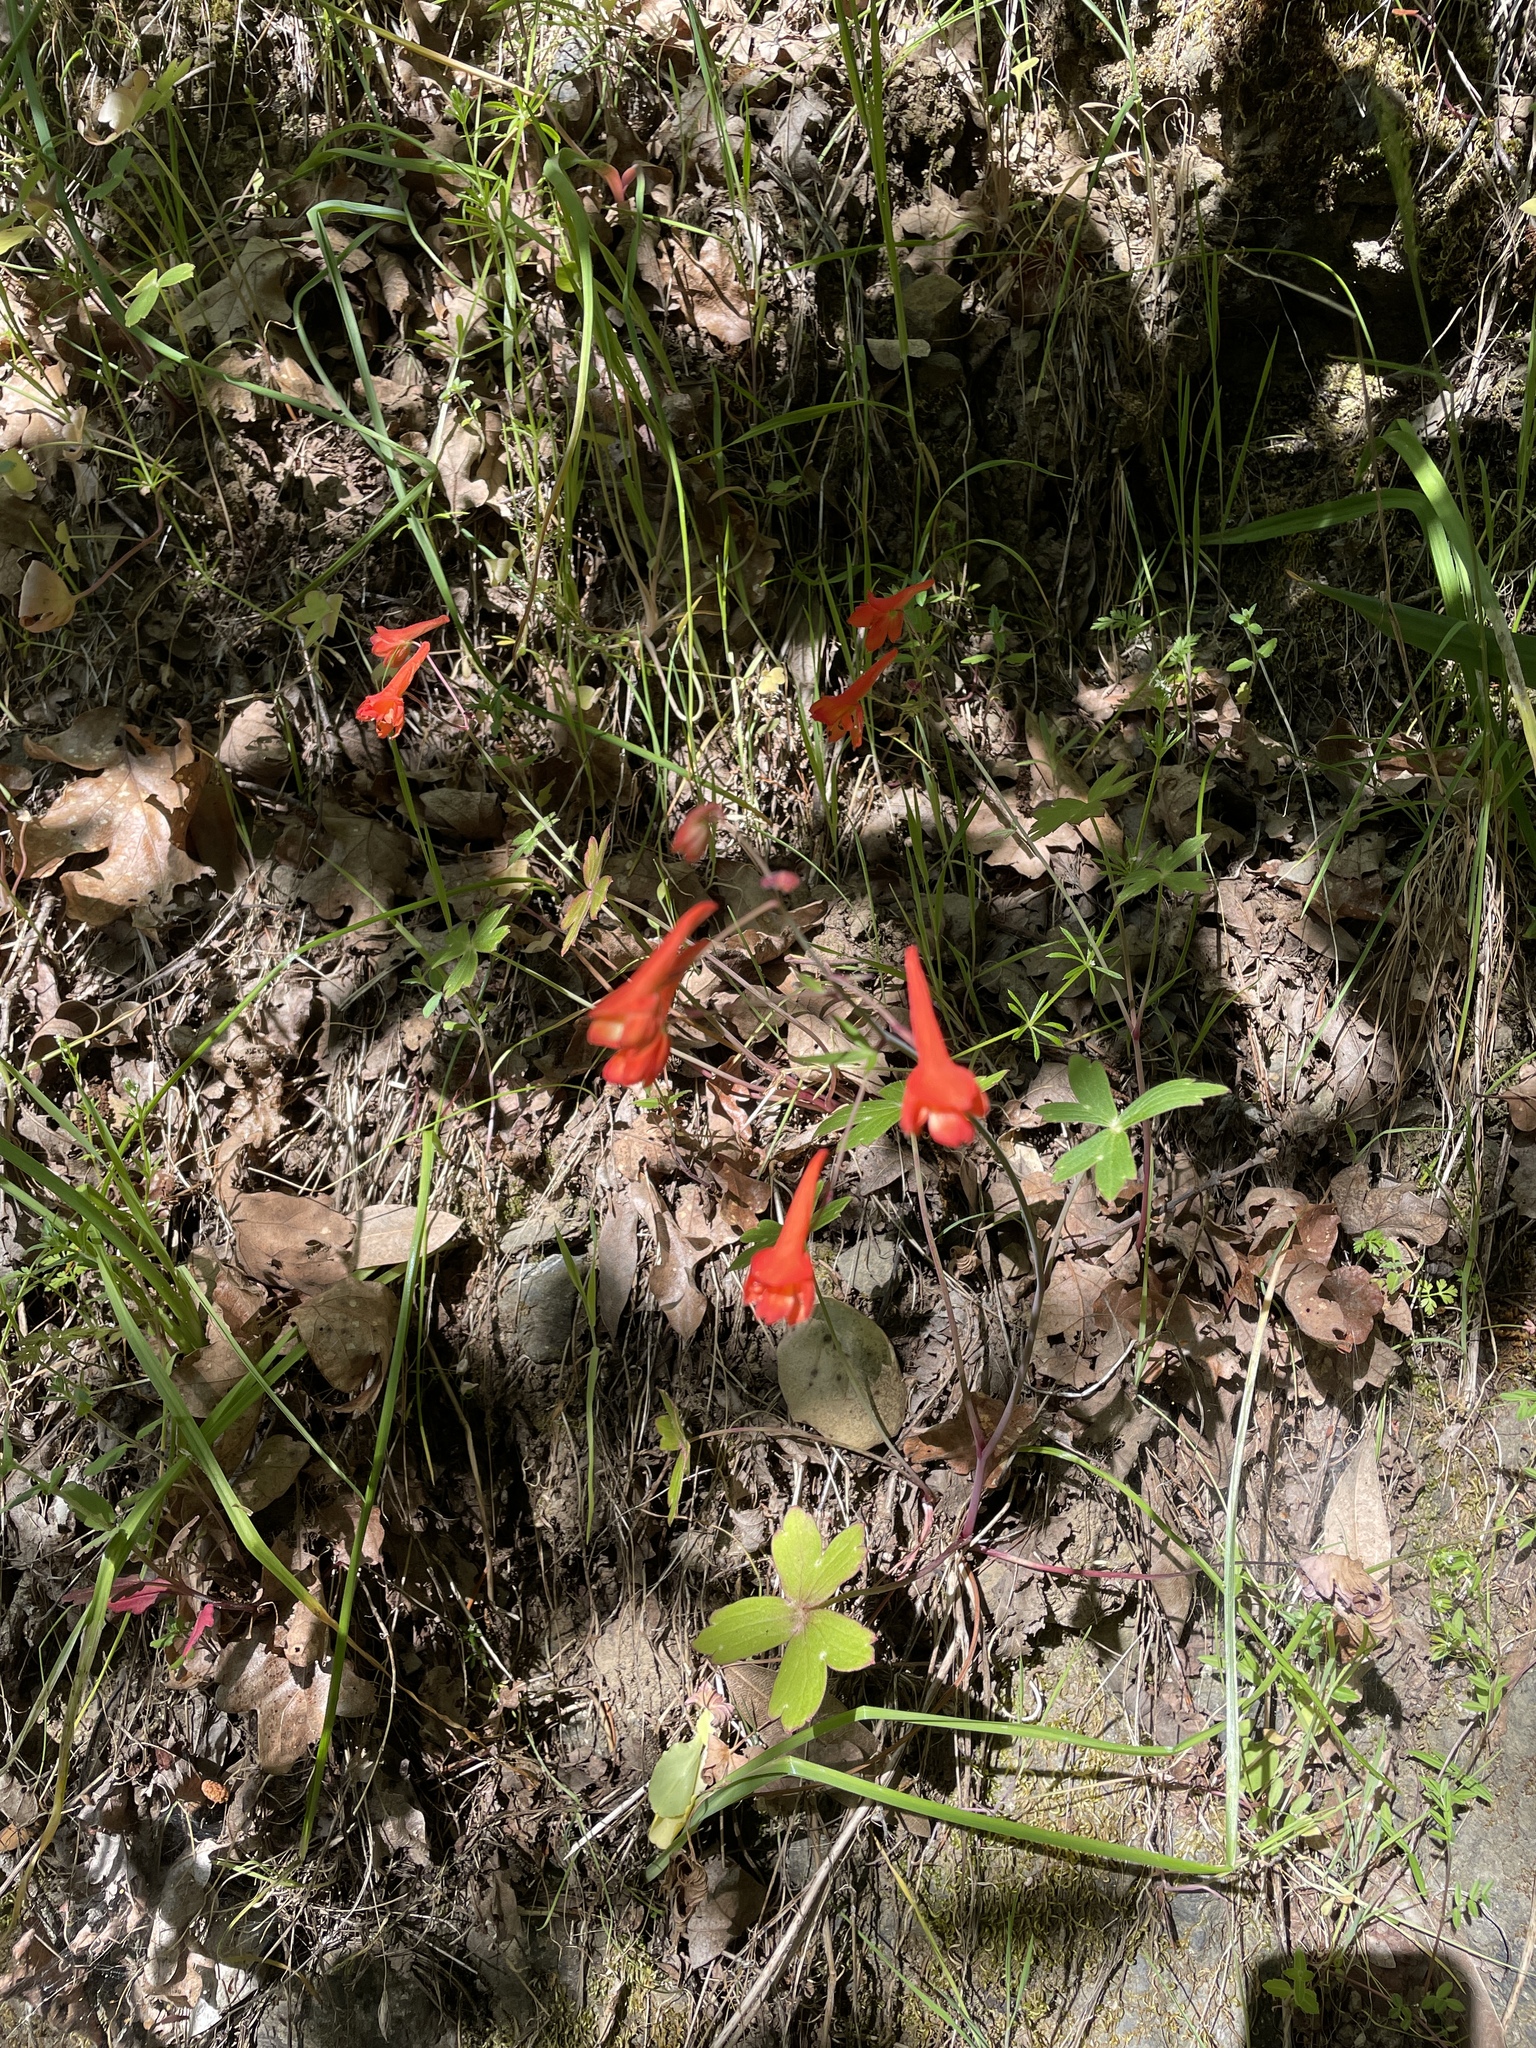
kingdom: Plantae
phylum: Tracheophyta
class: Magnoliopsida
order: Ranunculales
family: Ranunculaceae
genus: Delphinium
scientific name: Delphinium nudicaule
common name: Red larkspur
